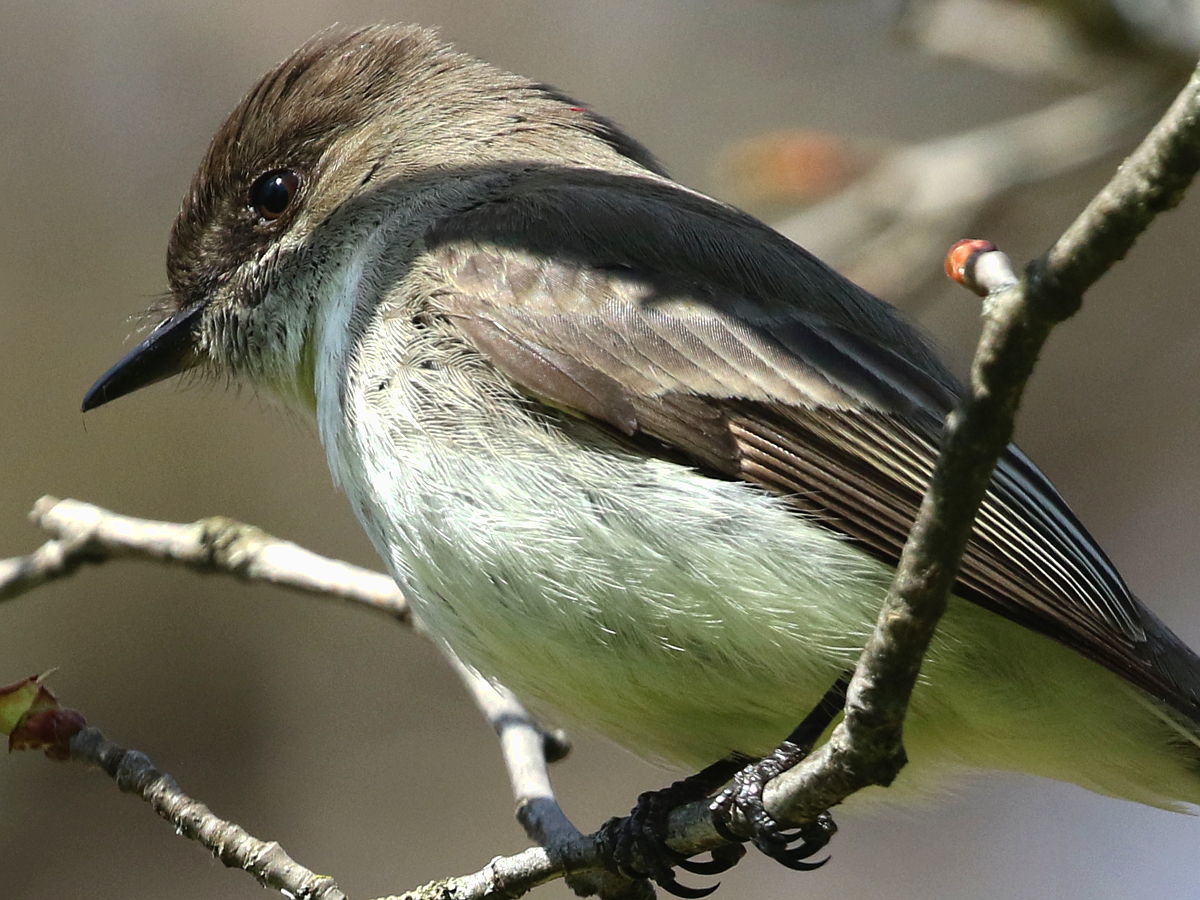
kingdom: Animalia
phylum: Chordata
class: Aves
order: Passeriformes
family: Tyrannidae
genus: Sayornis
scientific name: Sayornis phoebe
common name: Eastern phoebe
